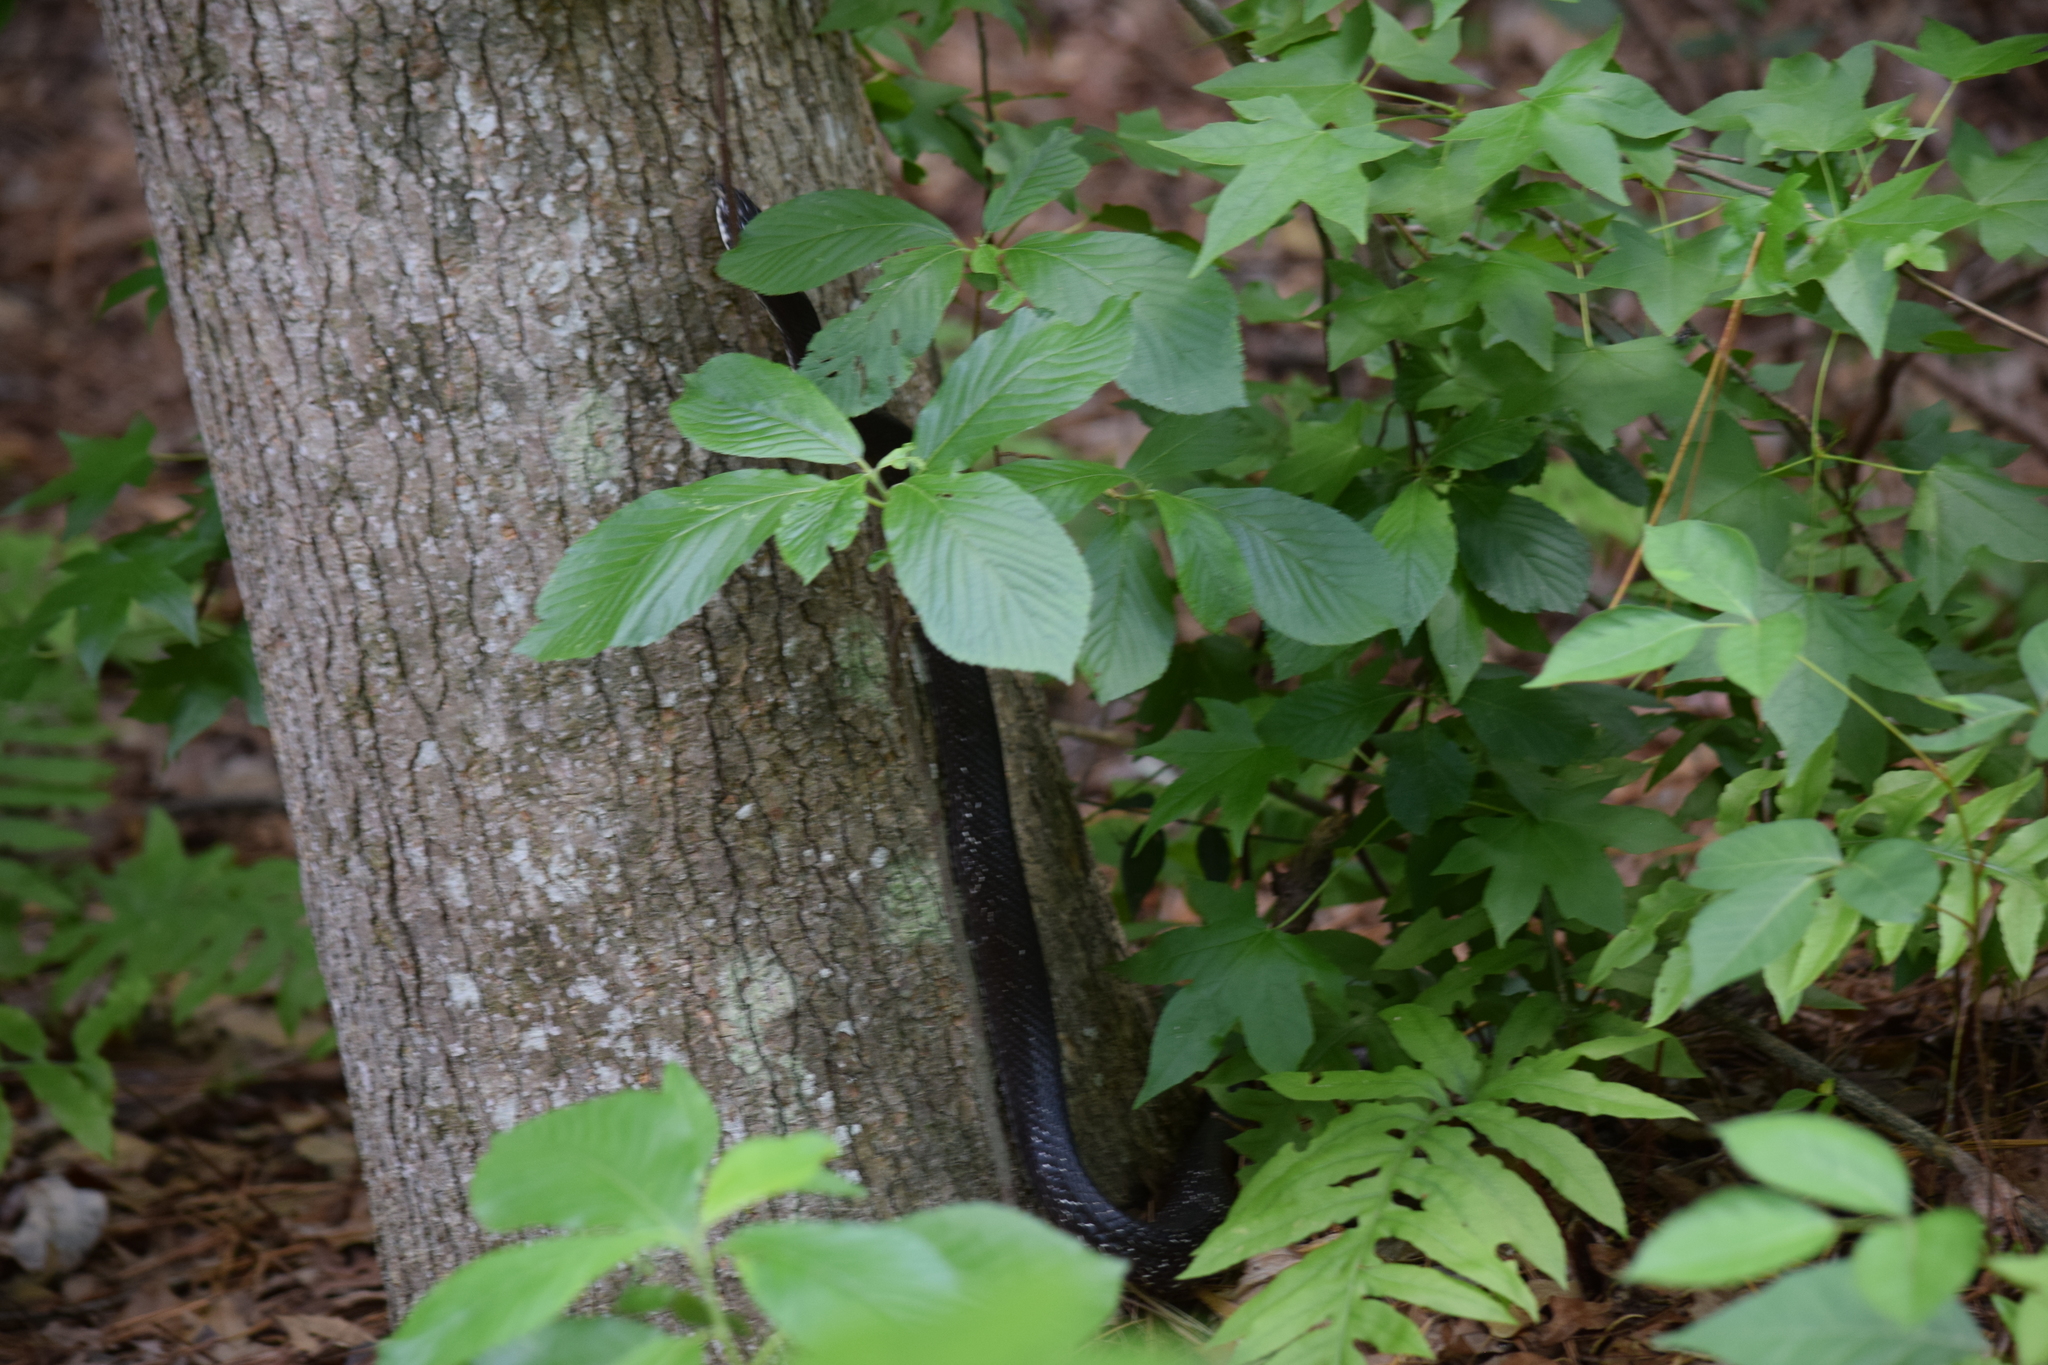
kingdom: Animalia
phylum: Chordata
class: Squamata
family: Colubridae
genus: Pantherophis
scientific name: Pantherophis alleghaniensis
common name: Eastern rat snake
